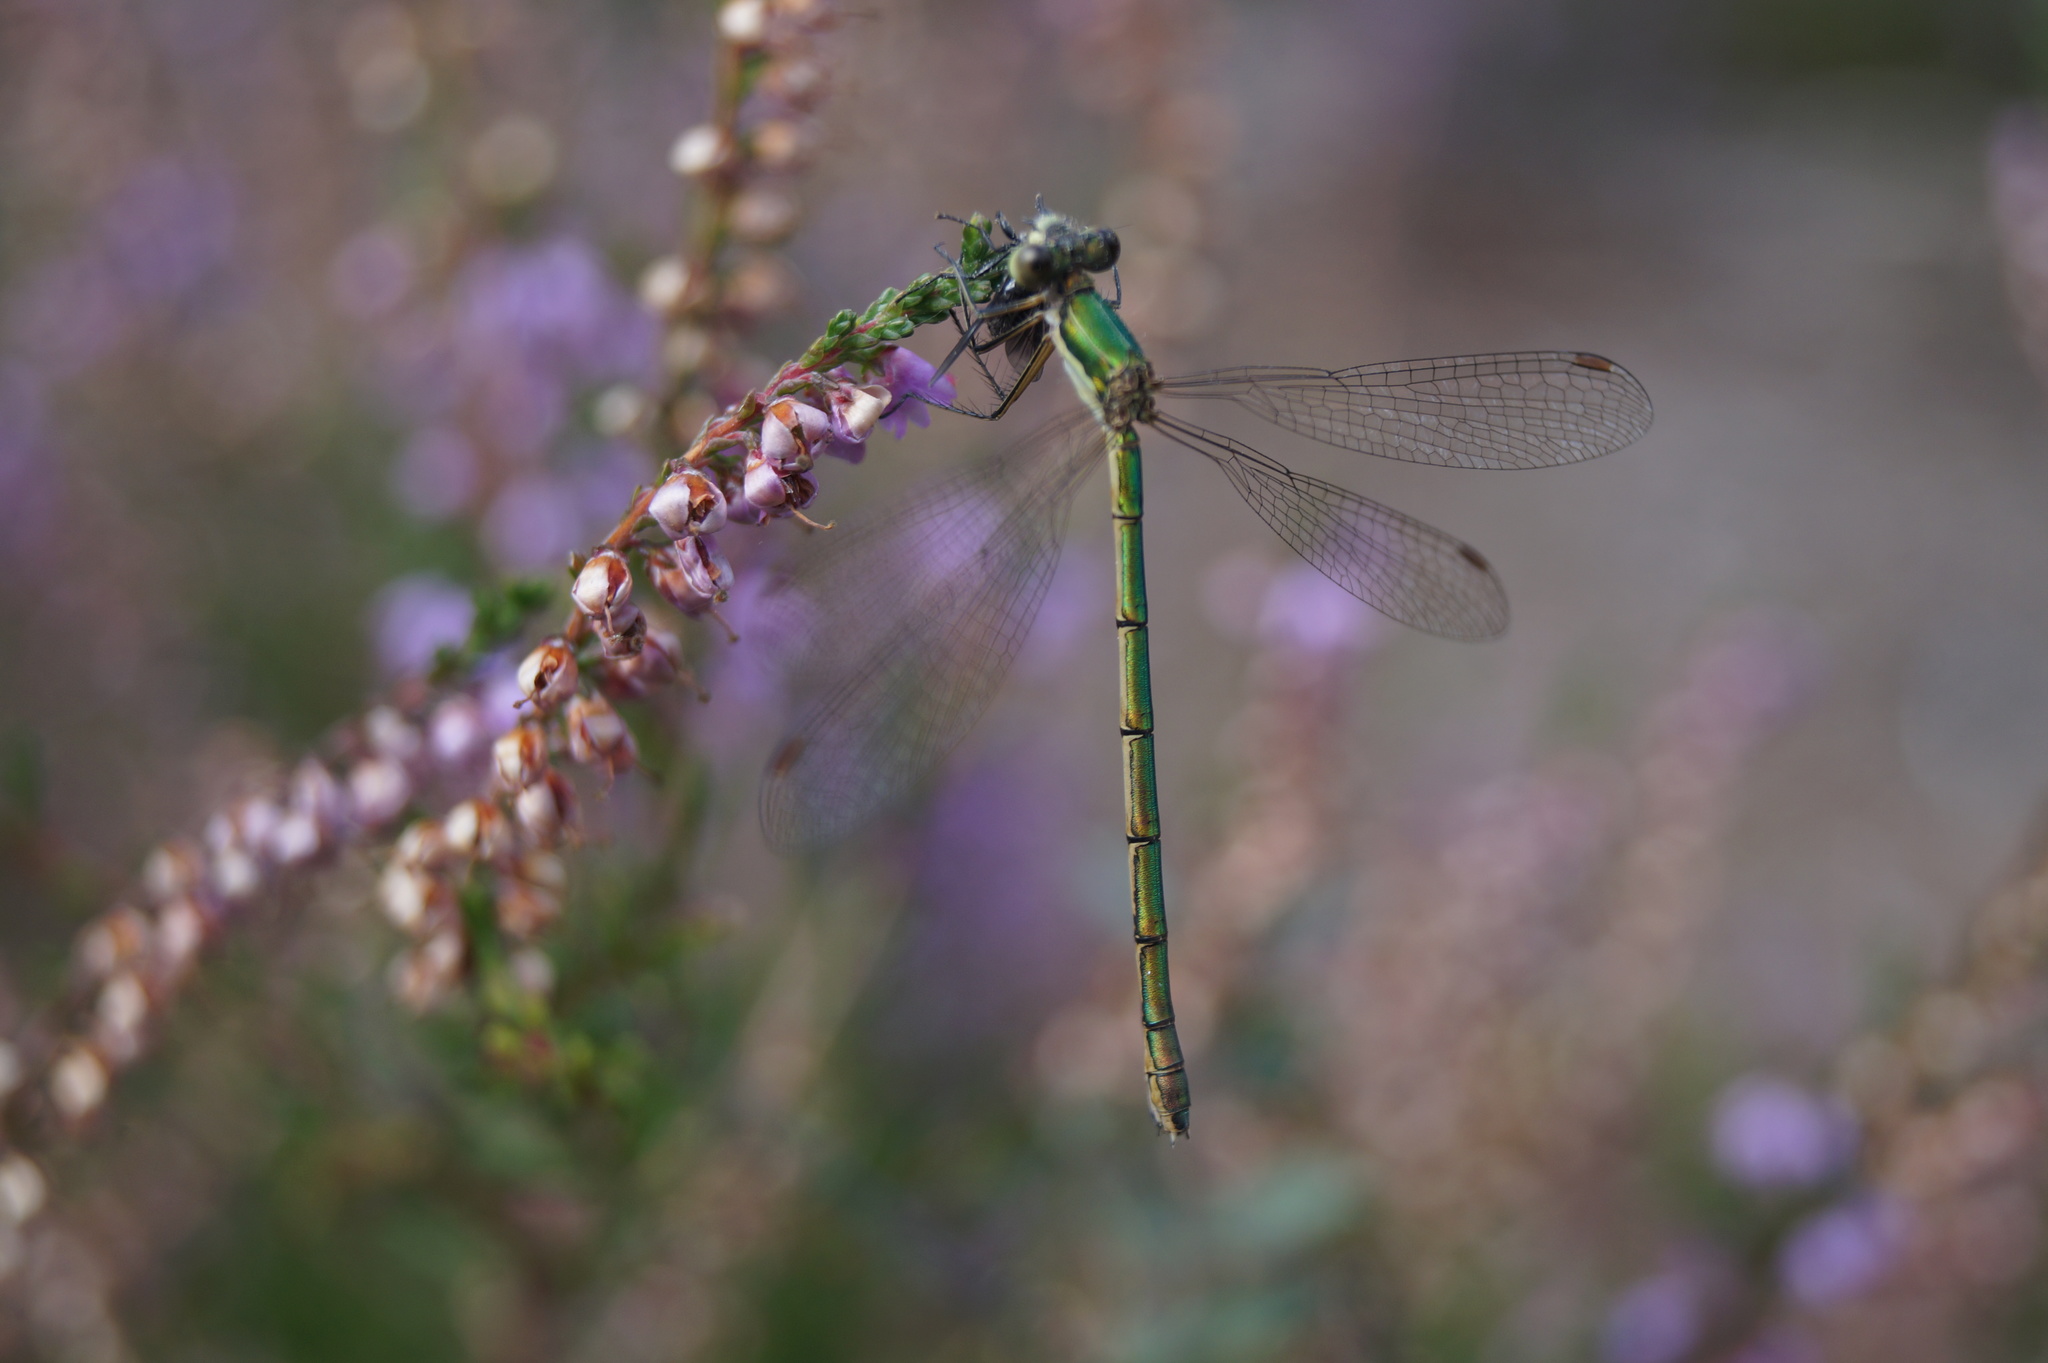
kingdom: Animalia
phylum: Arthropoda
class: Insecta
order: Odonata
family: Lestidae
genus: Lestes
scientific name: Lestes virens
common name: Small emerald spreadwing
